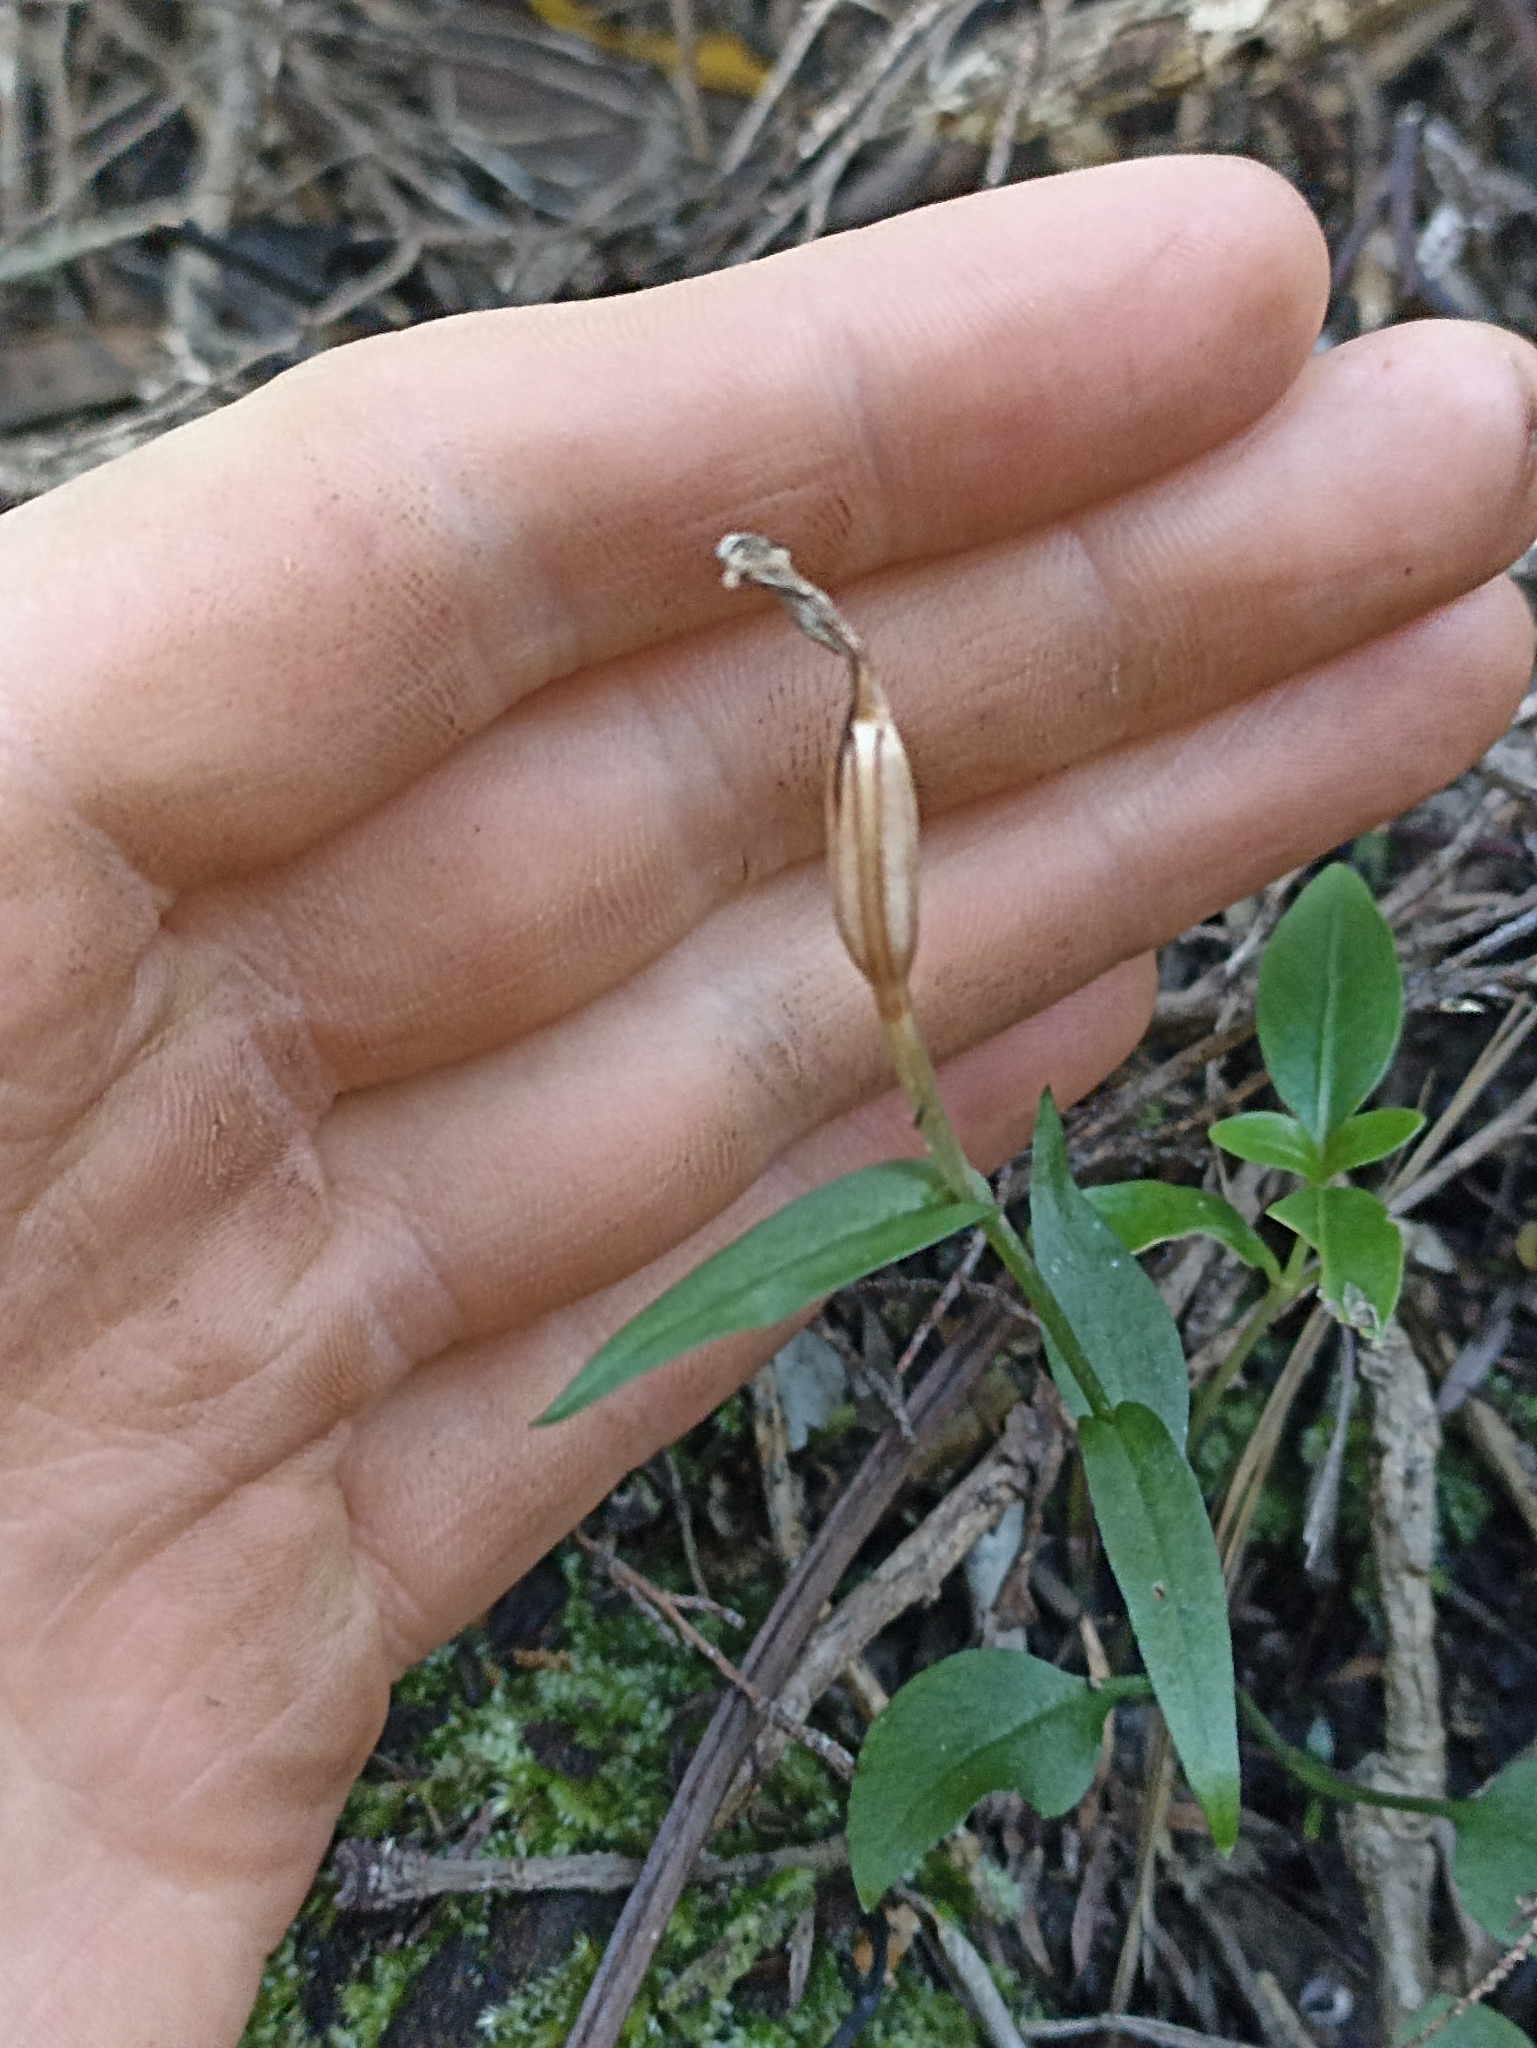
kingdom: Plantae
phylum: Tracheophyta
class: Liliopsida
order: Asparagales
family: Orchidaceae
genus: Pterostylis
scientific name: Pterostylis alobula
